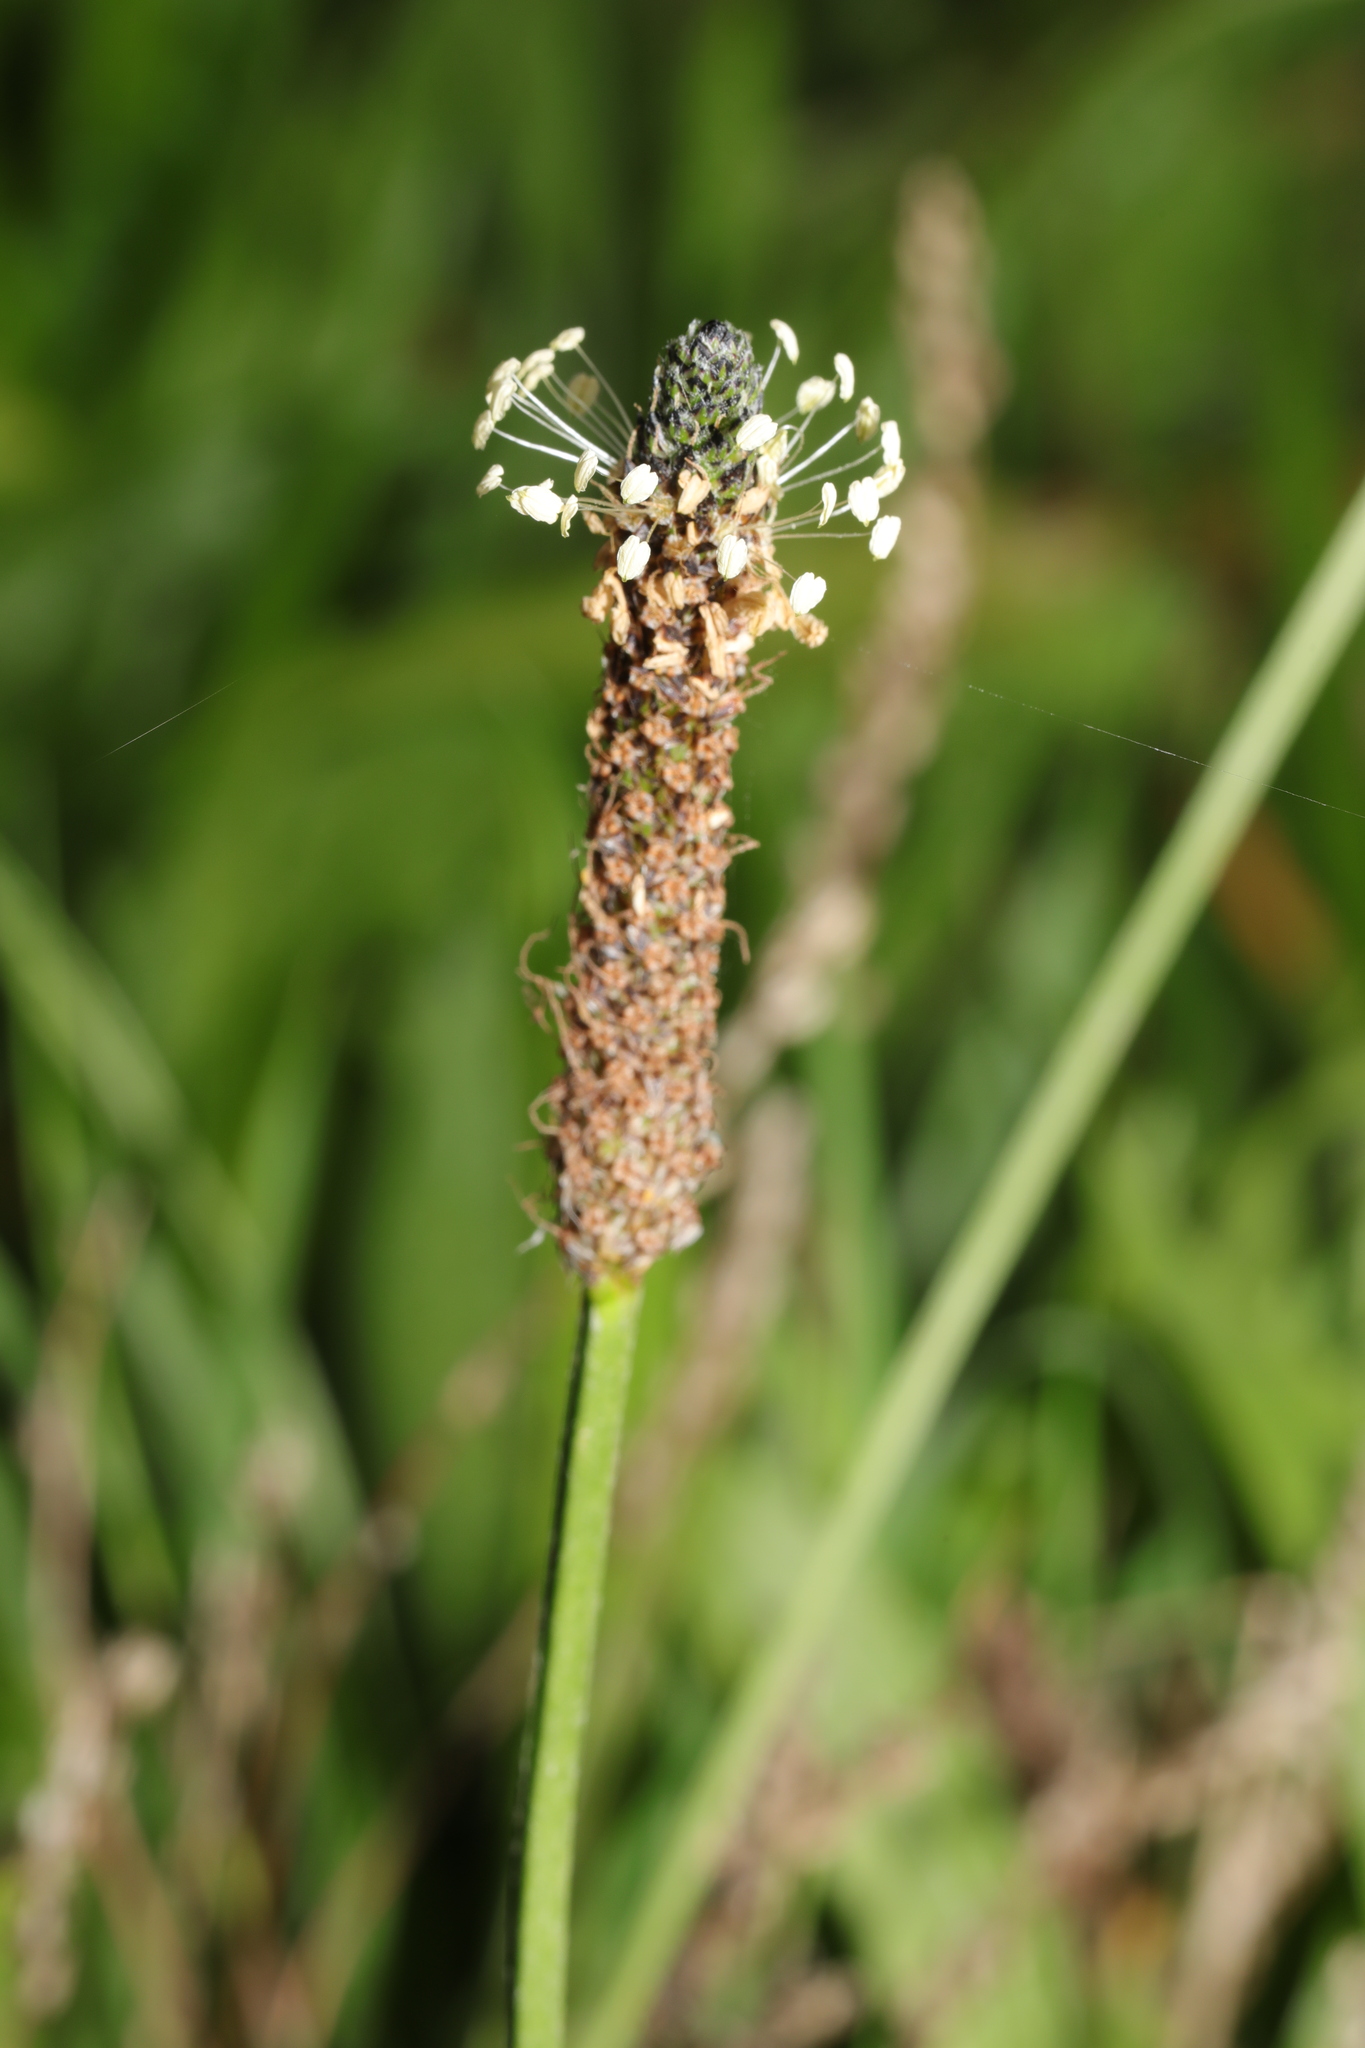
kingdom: Plantae
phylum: Tracheophyta
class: Magnoliopsida
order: Lamiales
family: Plantaginaceae
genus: Plantago
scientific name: Plantago lanceolata
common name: Ribwort plantain
